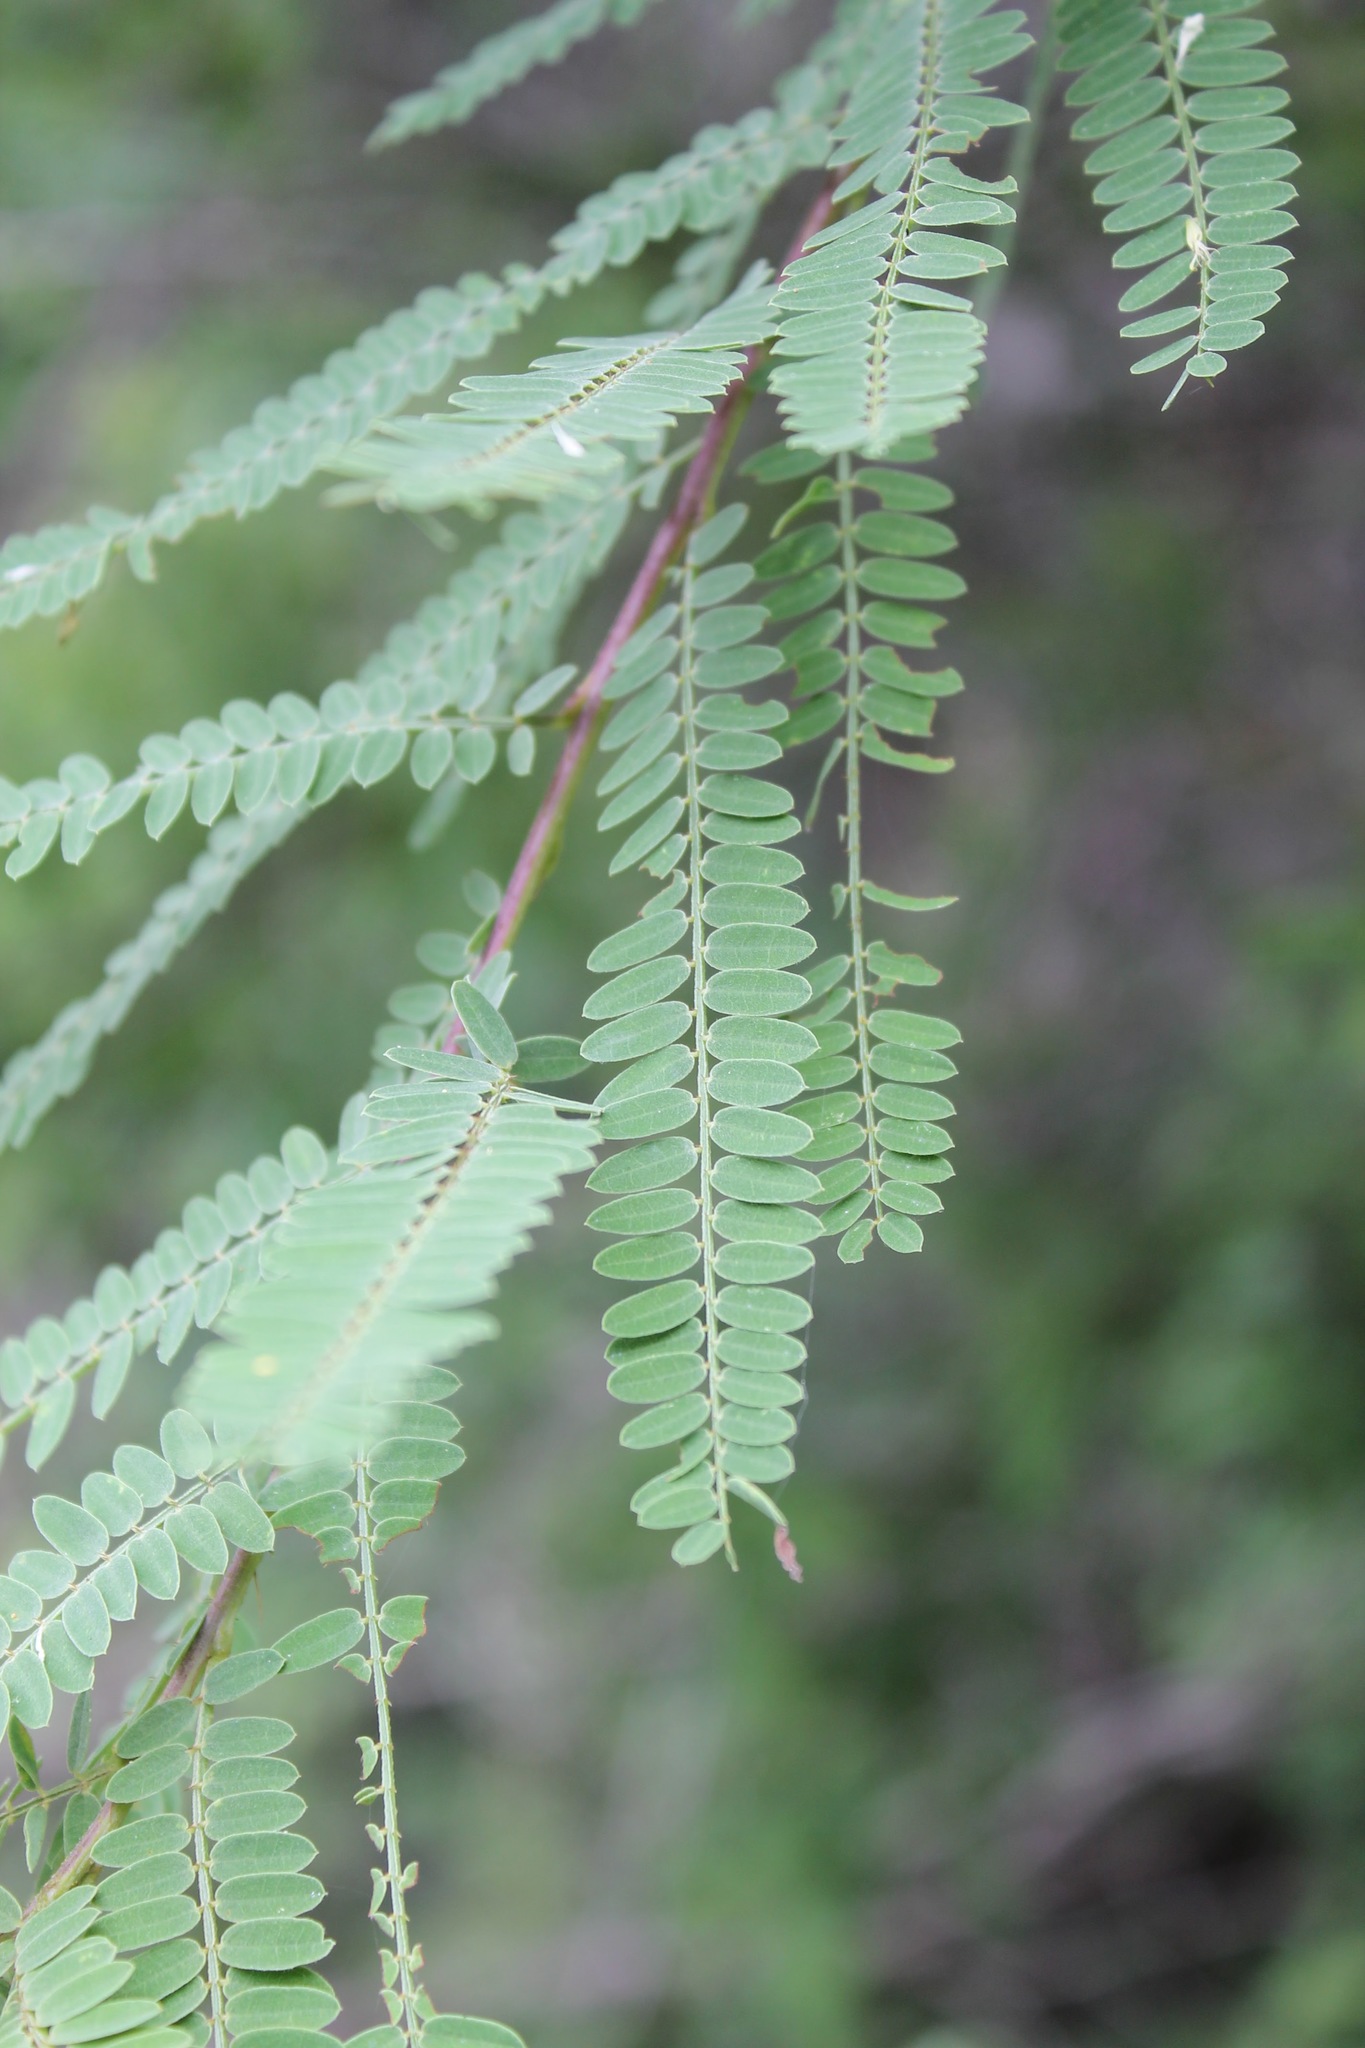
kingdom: Plantae
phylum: Tracheophyta
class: Magnoliopsida
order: Fabales
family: Fabaceae
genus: Eysenhardtia
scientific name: Eysenhardtia polystachya
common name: Kidneywood
